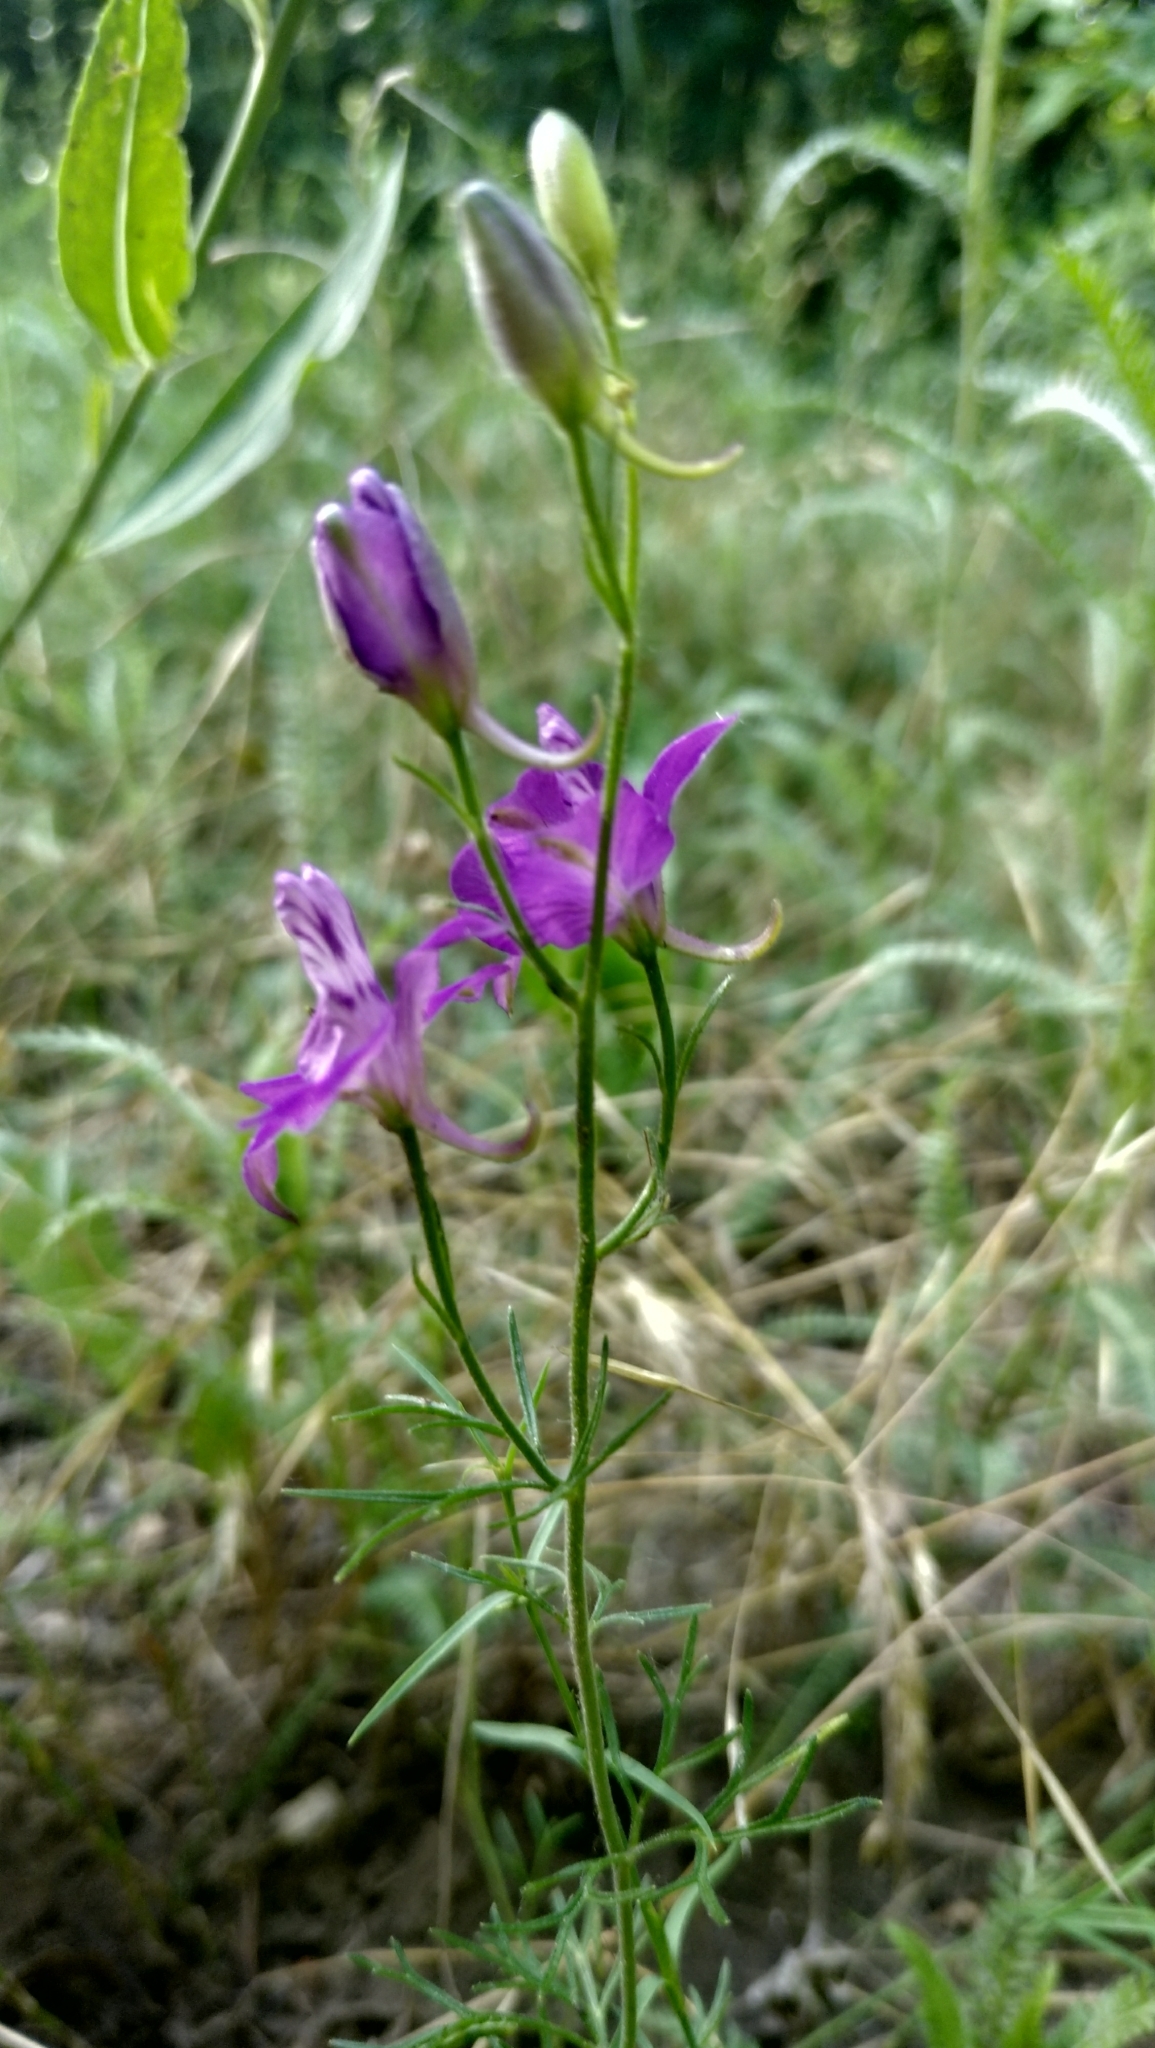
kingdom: Plantae
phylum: Tracheophyta
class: Magnoliopsida
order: Ranunculales
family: Ranunculaceae
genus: Delphinium
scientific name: Delphinium consolida
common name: Branching larkspur
